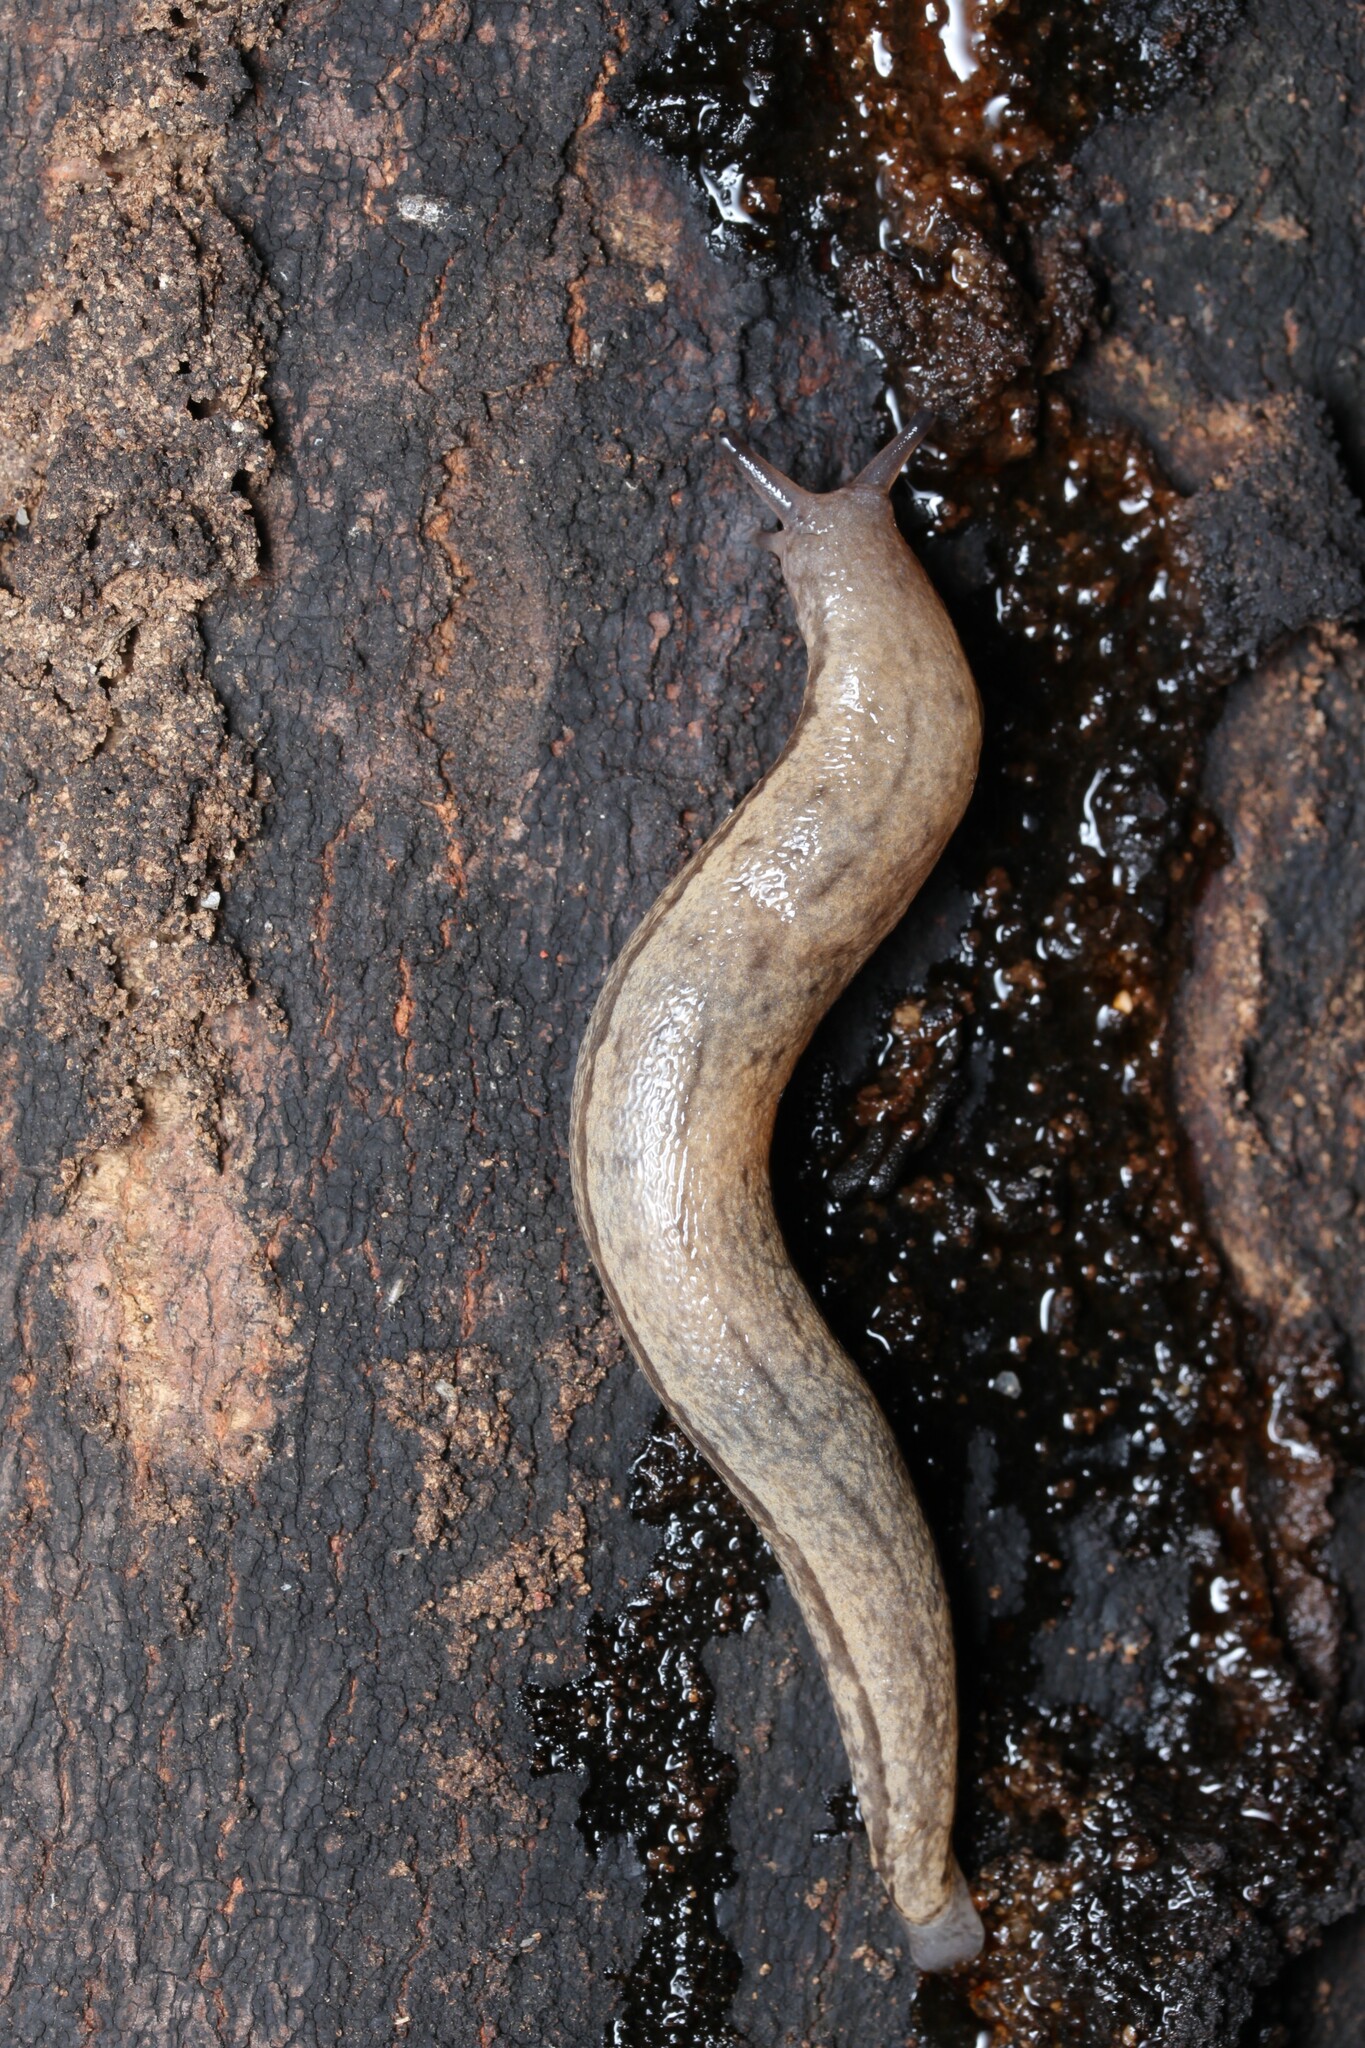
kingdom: Animalia
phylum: Mollusca
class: Gastropoda
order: Stylommatophora
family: Philomycidae
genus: Meghimatium
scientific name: Meghimatium bilineatum
